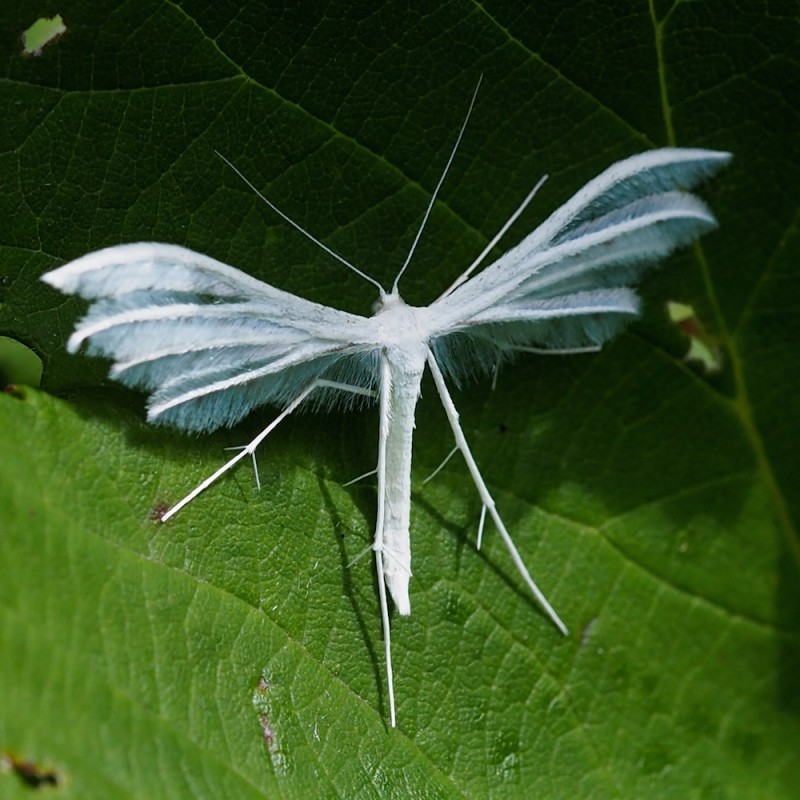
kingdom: Animalia
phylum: Arthropoda
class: Insecta
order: Lepidoptera
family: Pterophoridae
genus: Pterophorus
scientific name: Pterophorus pentadactyla
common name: White plume moth
